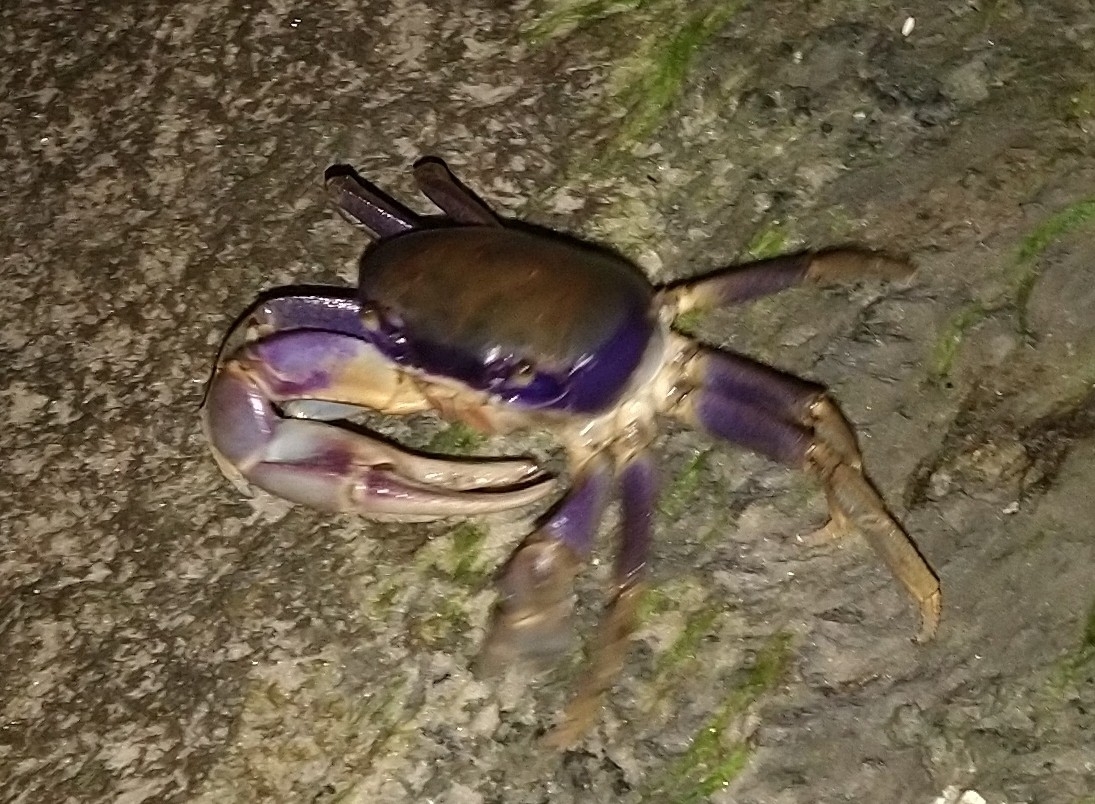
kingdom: Animalia
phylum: Arthropoda
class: Malacostraca
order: Decapoda
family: Gecarcinidae
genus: Cardisoma
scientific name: Cardisoma guanhumi
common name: Great land crab
